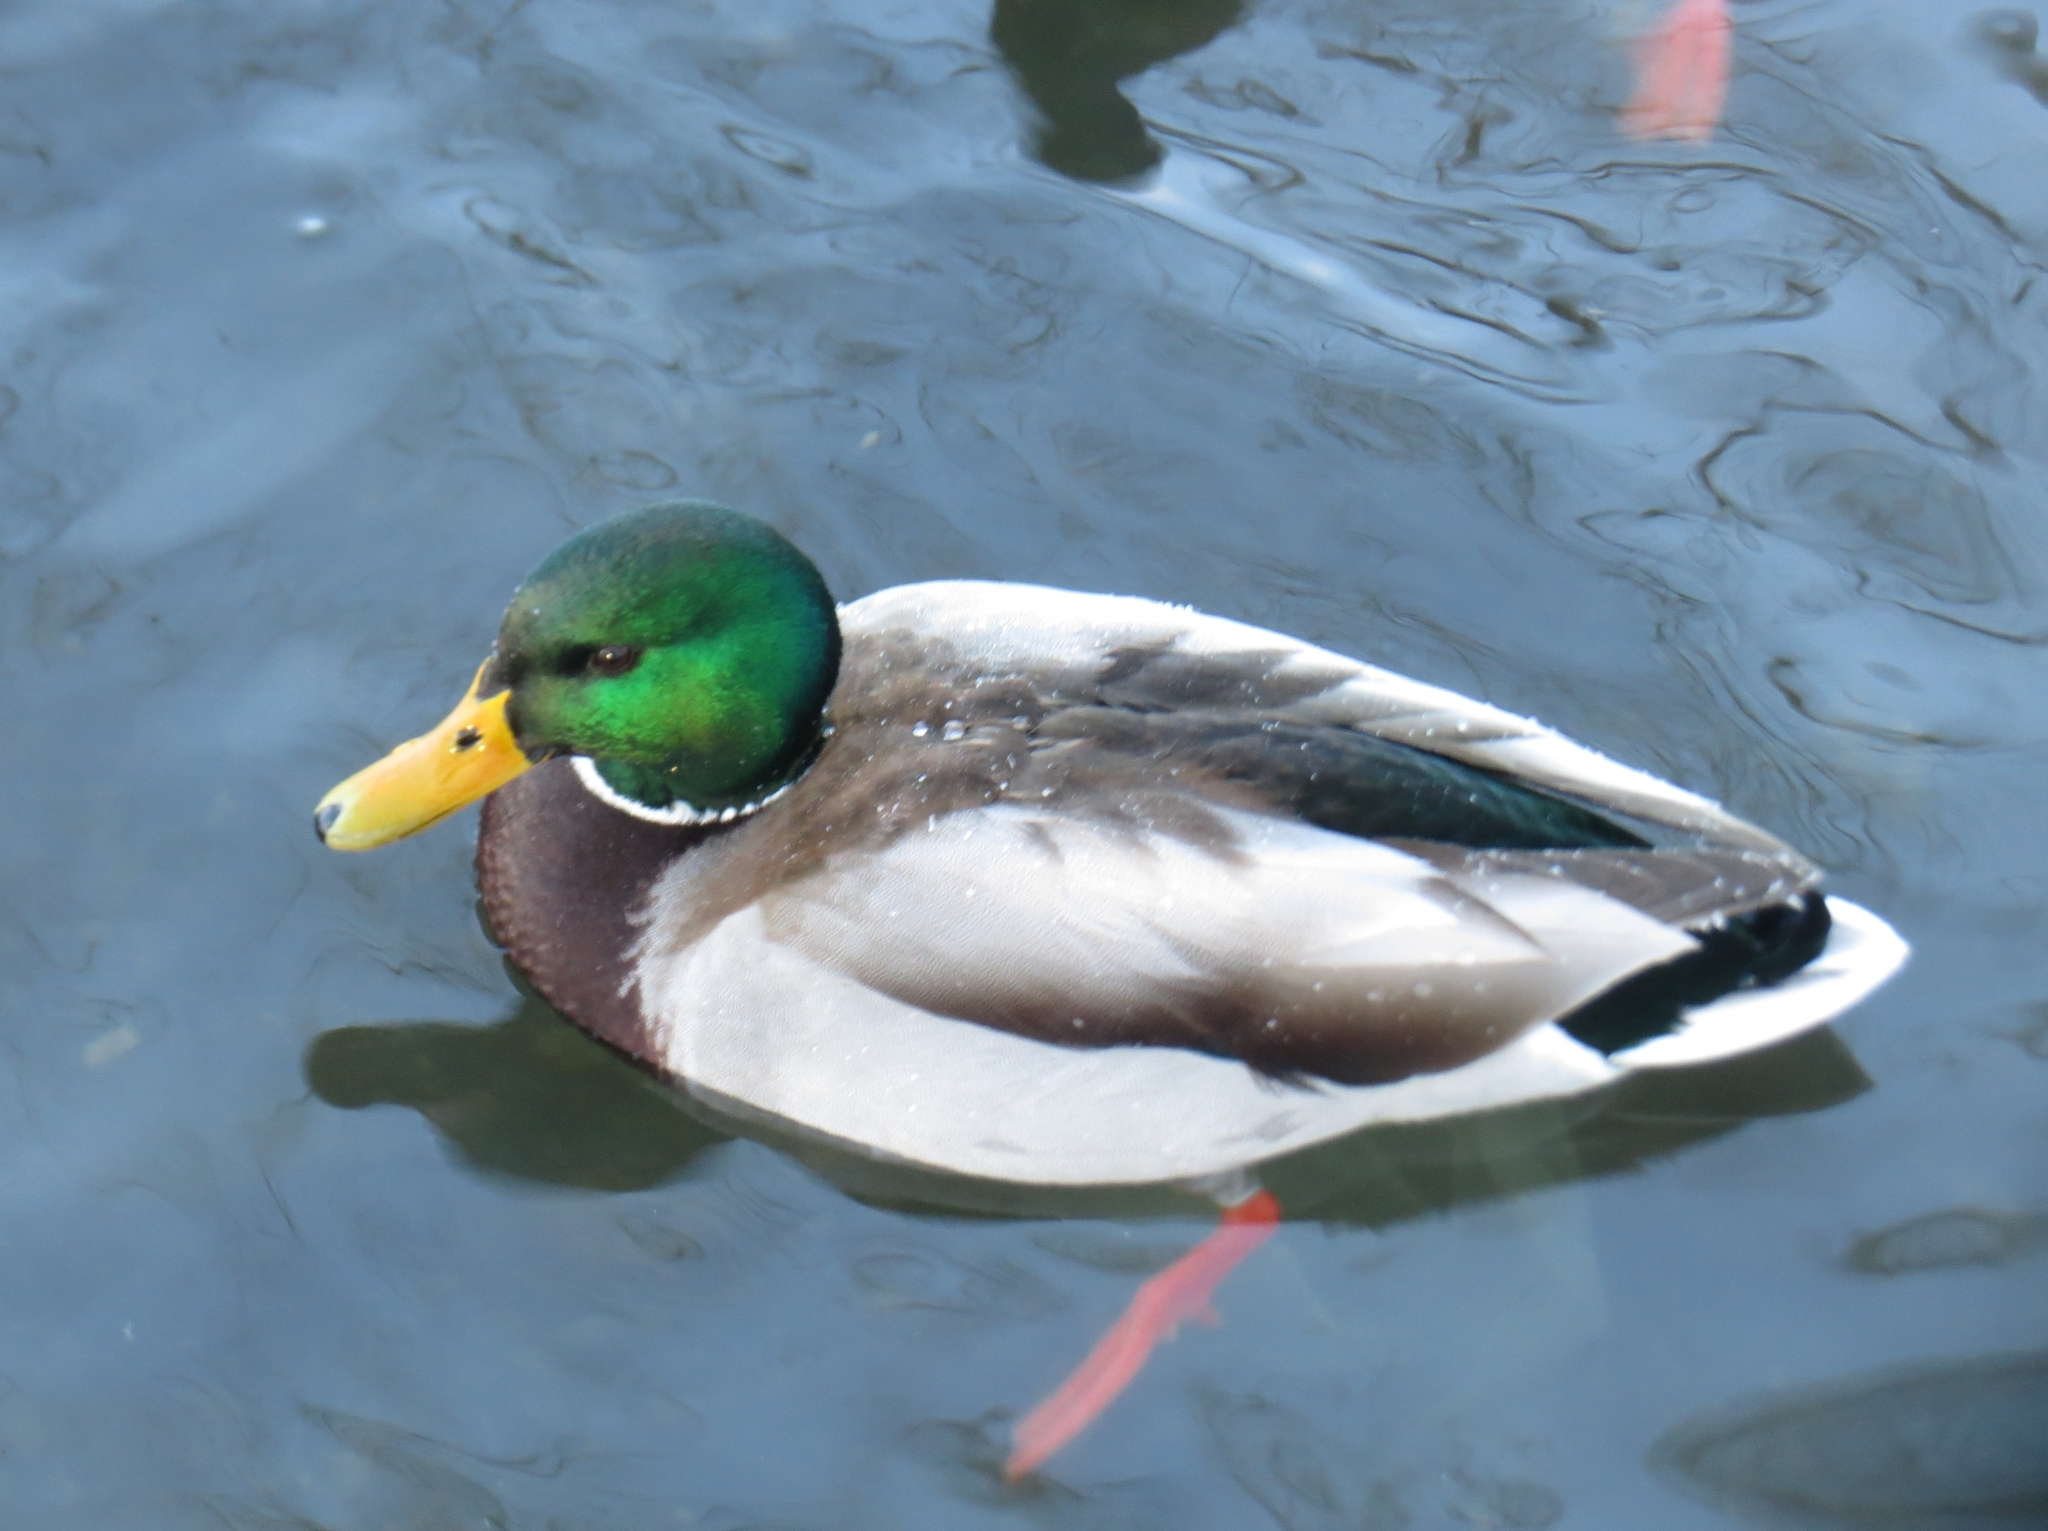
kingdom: Animalia
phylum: Chordata
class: Aves
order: Anseriformes
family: Anatidae
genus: Anas
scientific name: Anas platyrhynchos
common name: Mallard
